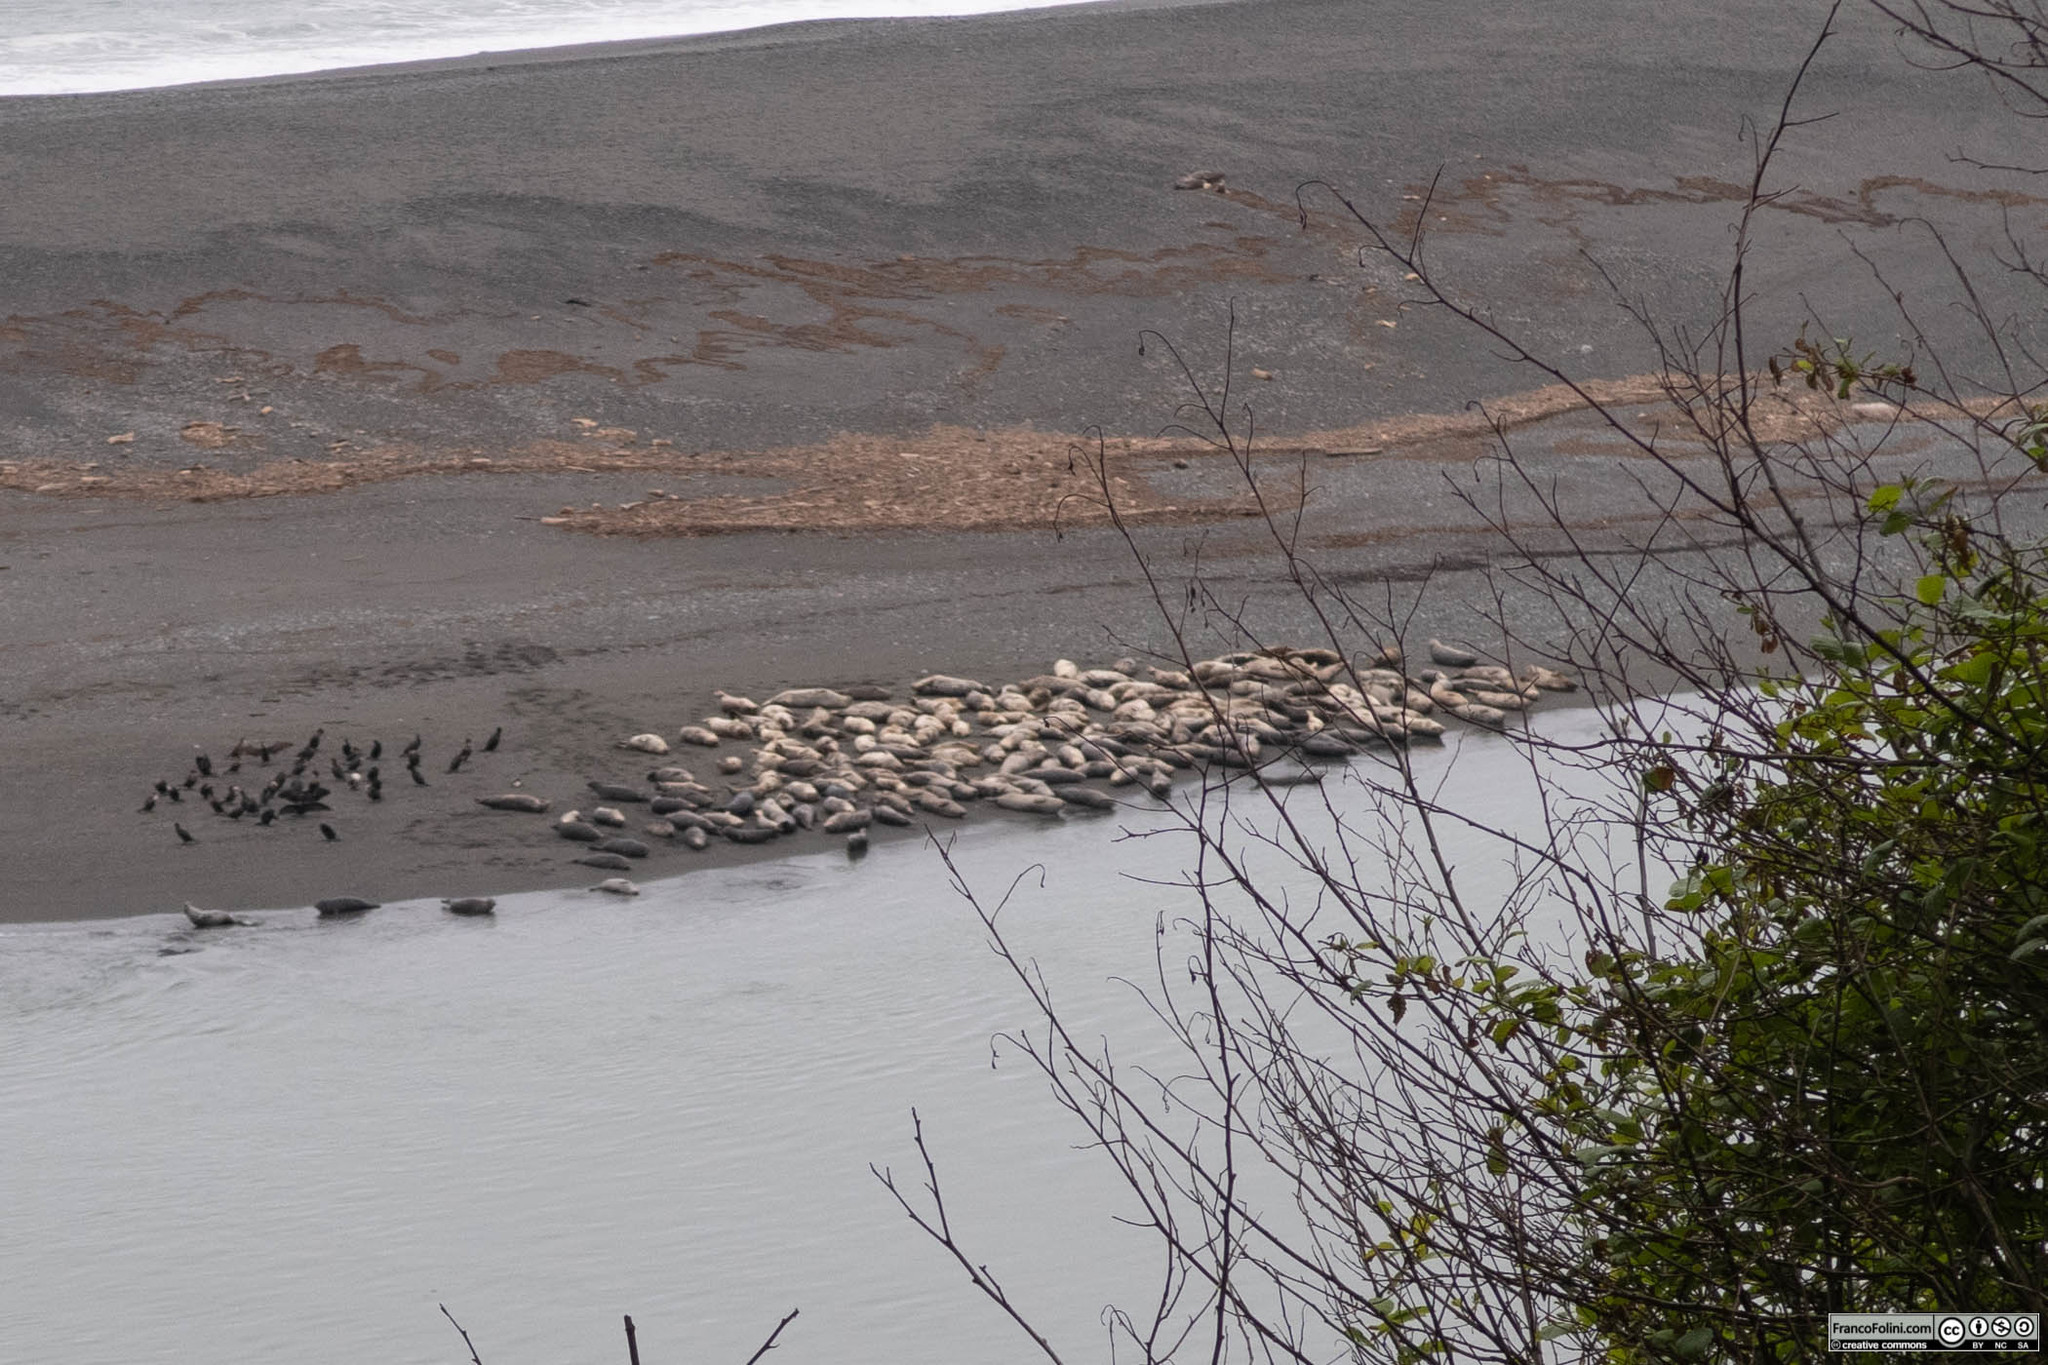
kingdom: Animalia
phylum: Chordata
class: Mammalia
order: Carnivora
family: Phocidae
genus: Phoca
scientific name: Phoca vitulina
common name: Harbor seal
